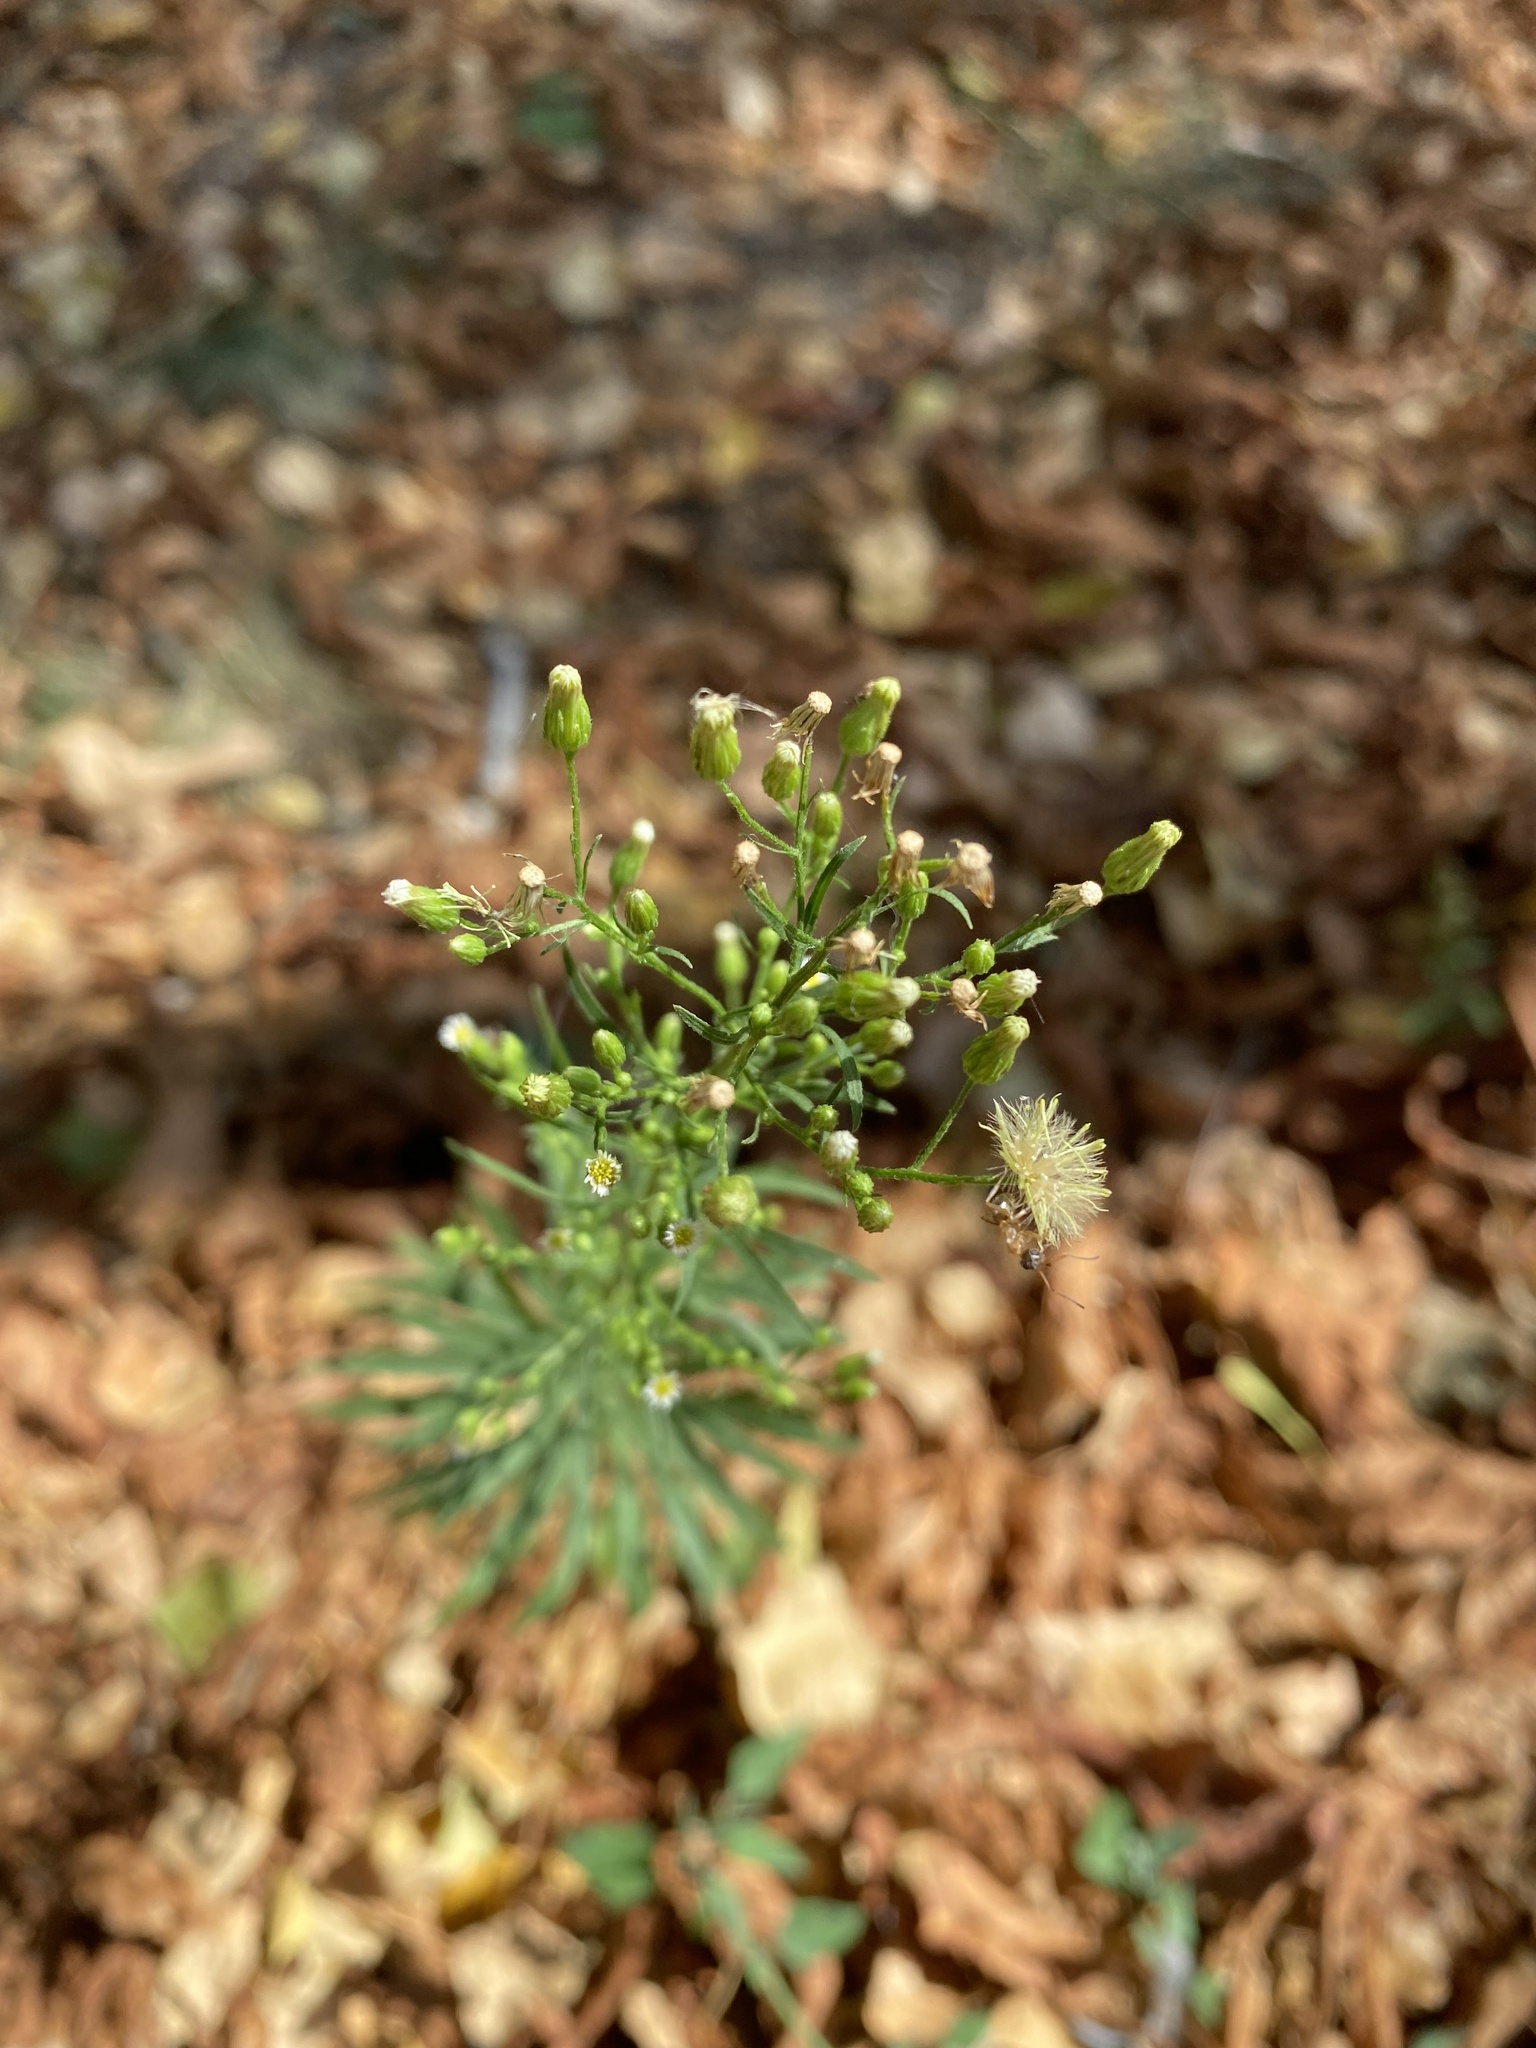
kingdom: Plantae
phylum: Tracheophyta
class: Magnoliopsida
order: Asterales
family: Asteraceae
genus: Erigeron
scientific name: Erigeron canadensis
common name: Canadian fleabane
